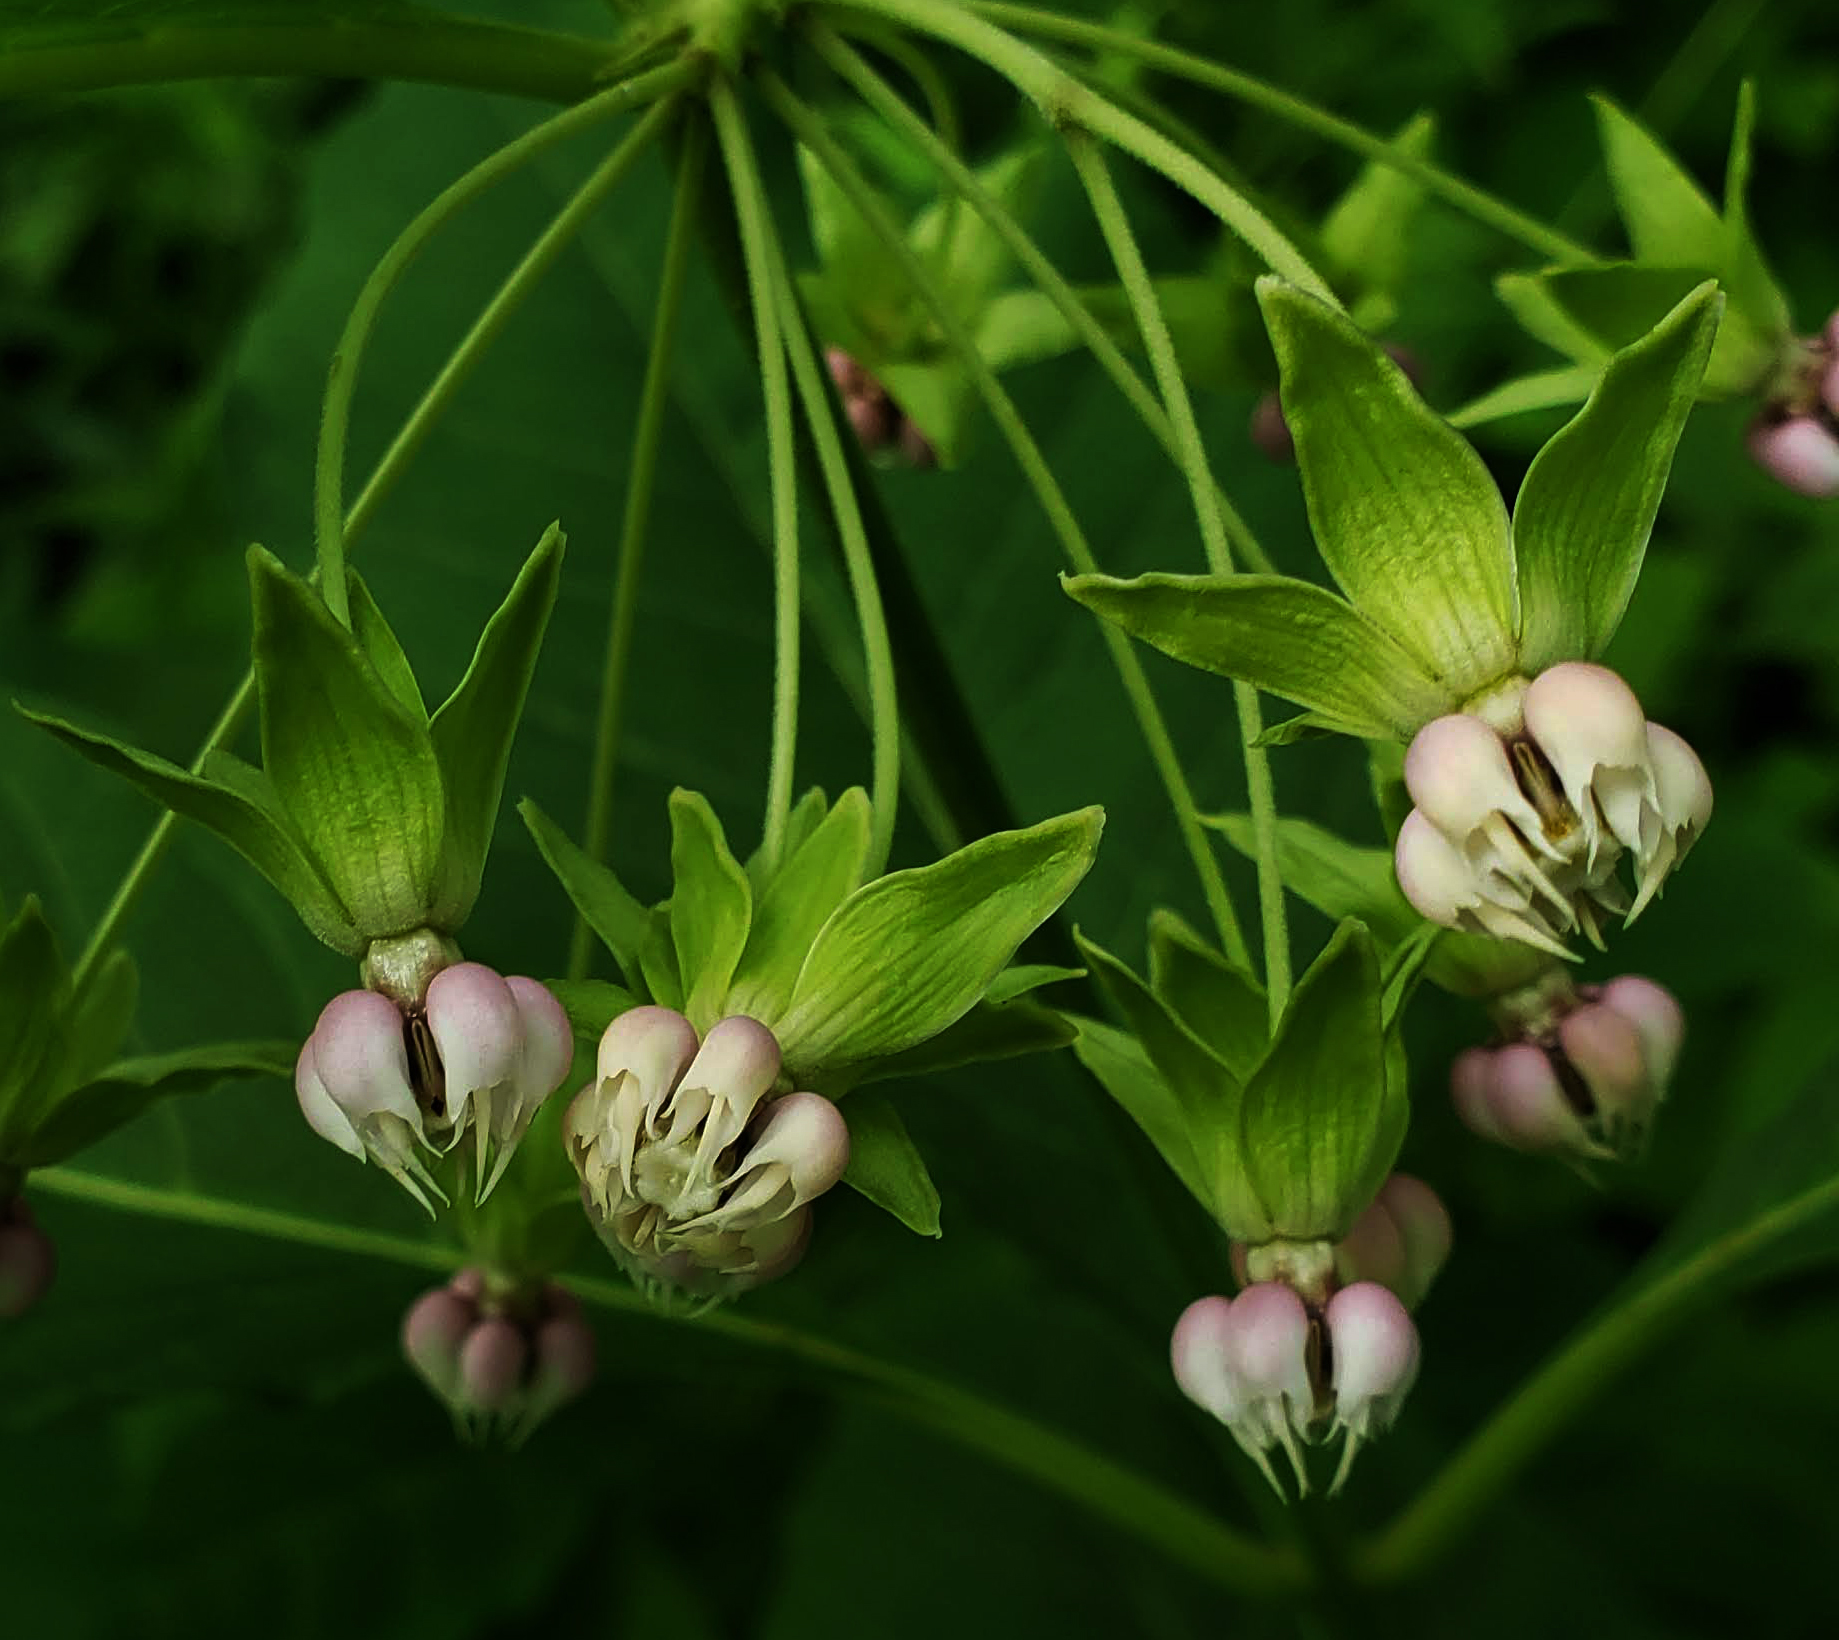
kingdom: Plantae
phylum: Tracheophyta
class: Magnoliopsida
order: Gentianales
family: Apocynaceae
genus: Asclepias
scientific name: Asclepias exaltata
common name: Poke milkweed
